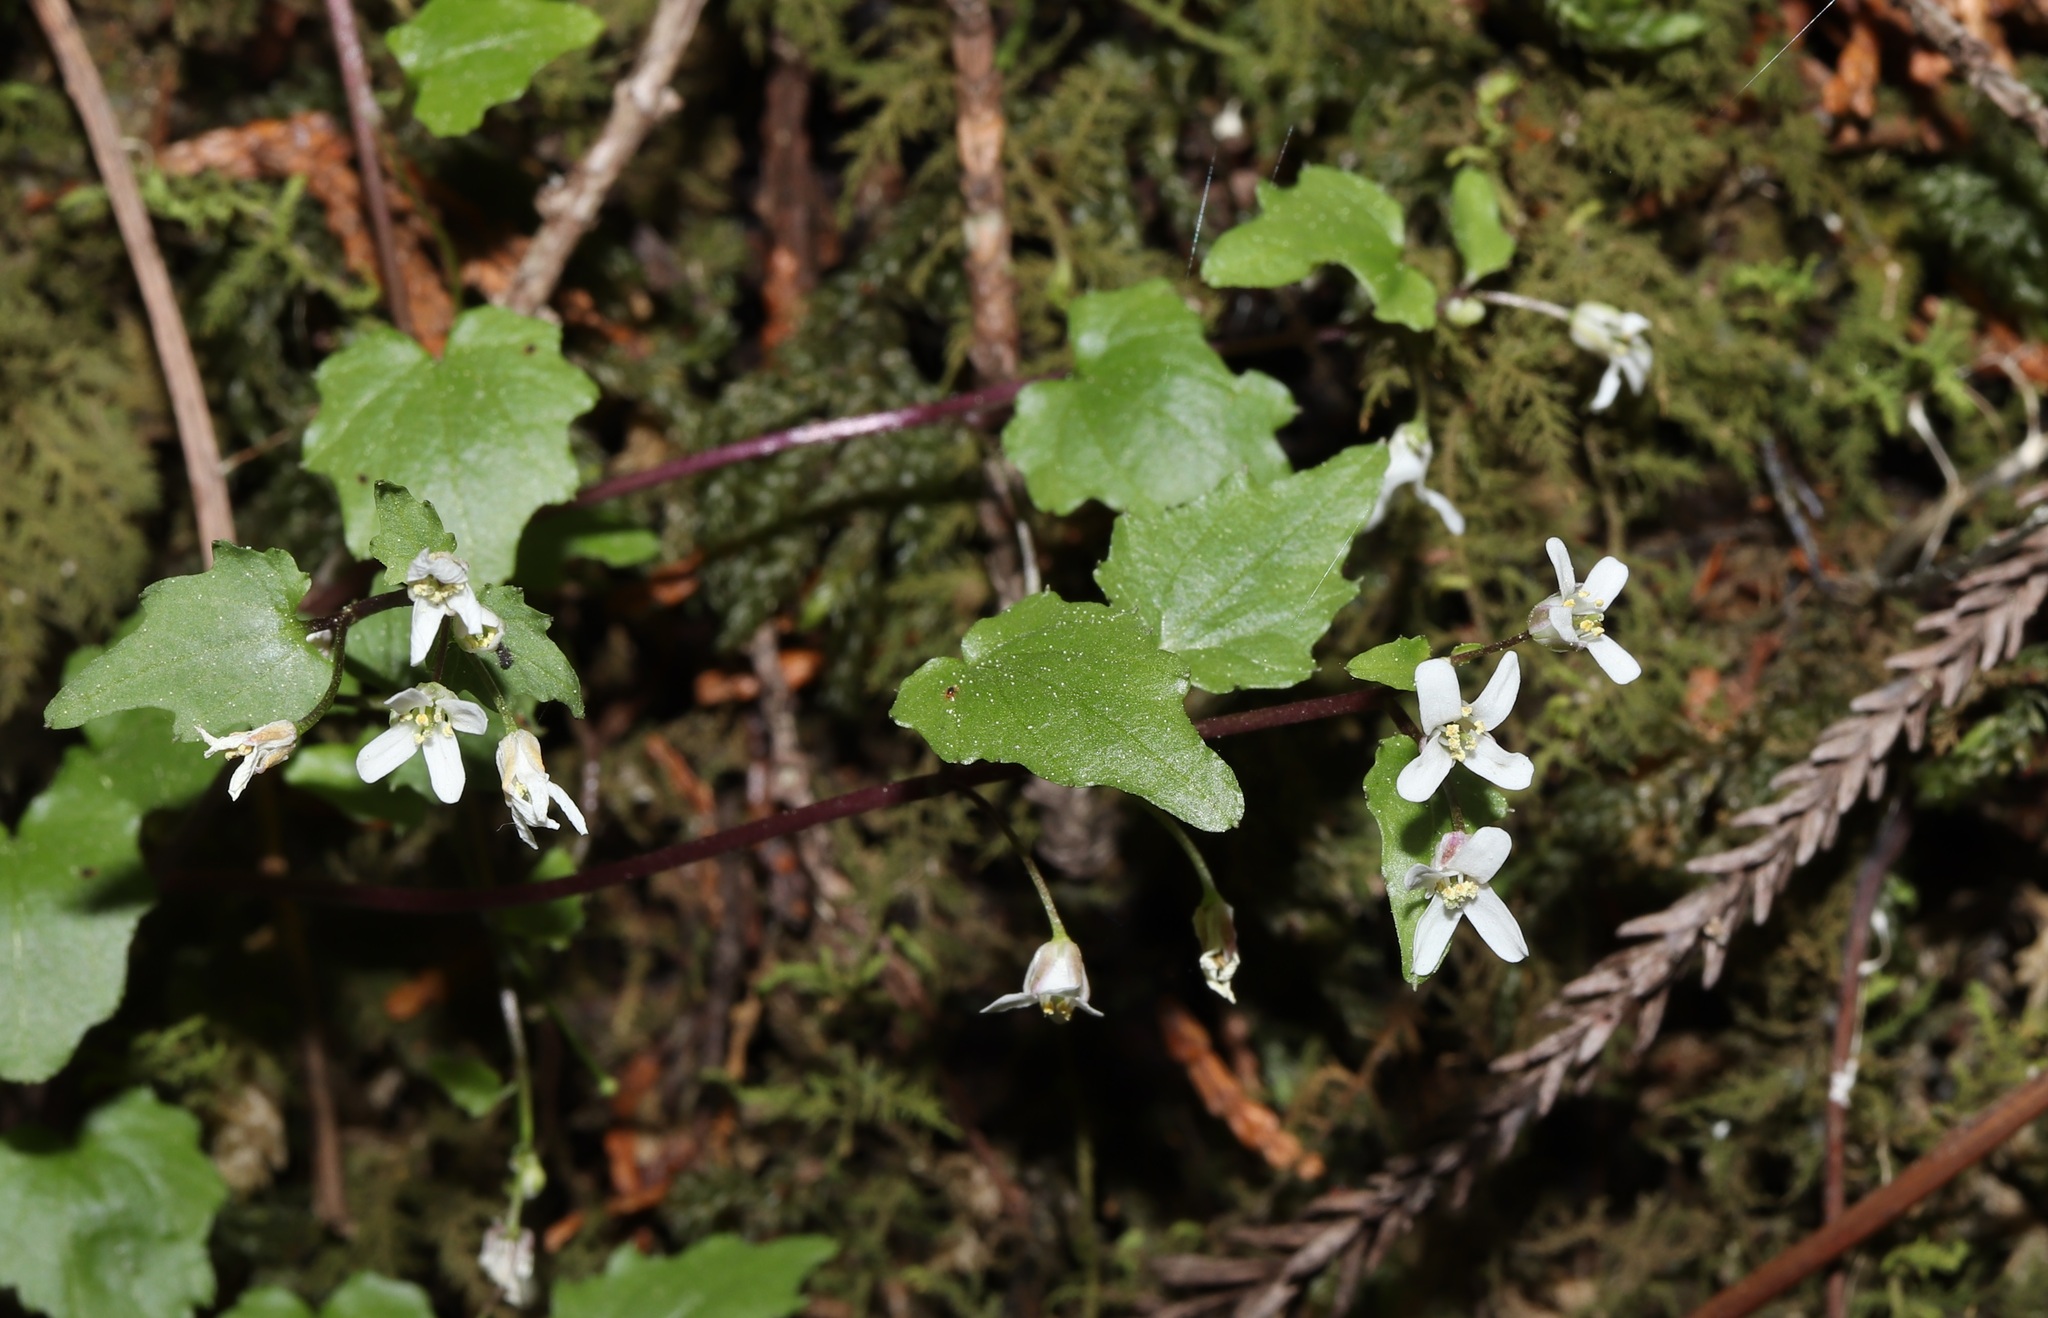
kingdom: Plantae
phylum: Tracheophyta
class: Magnoliopsida
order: Brassicales
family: Brassicaceae
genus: Eutrema
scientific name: Eutrema tenue
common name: Lesser wasabi
